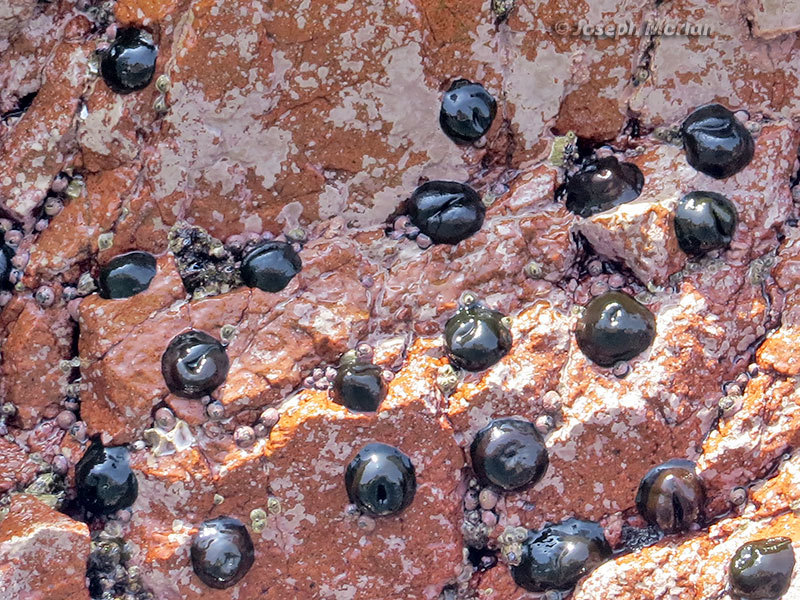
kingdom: Animalia
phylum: Cnidaria
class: Anthozoa
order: Actiniaria
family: Actiniidae
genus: Phymactis
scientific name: Phymactis papillosa
